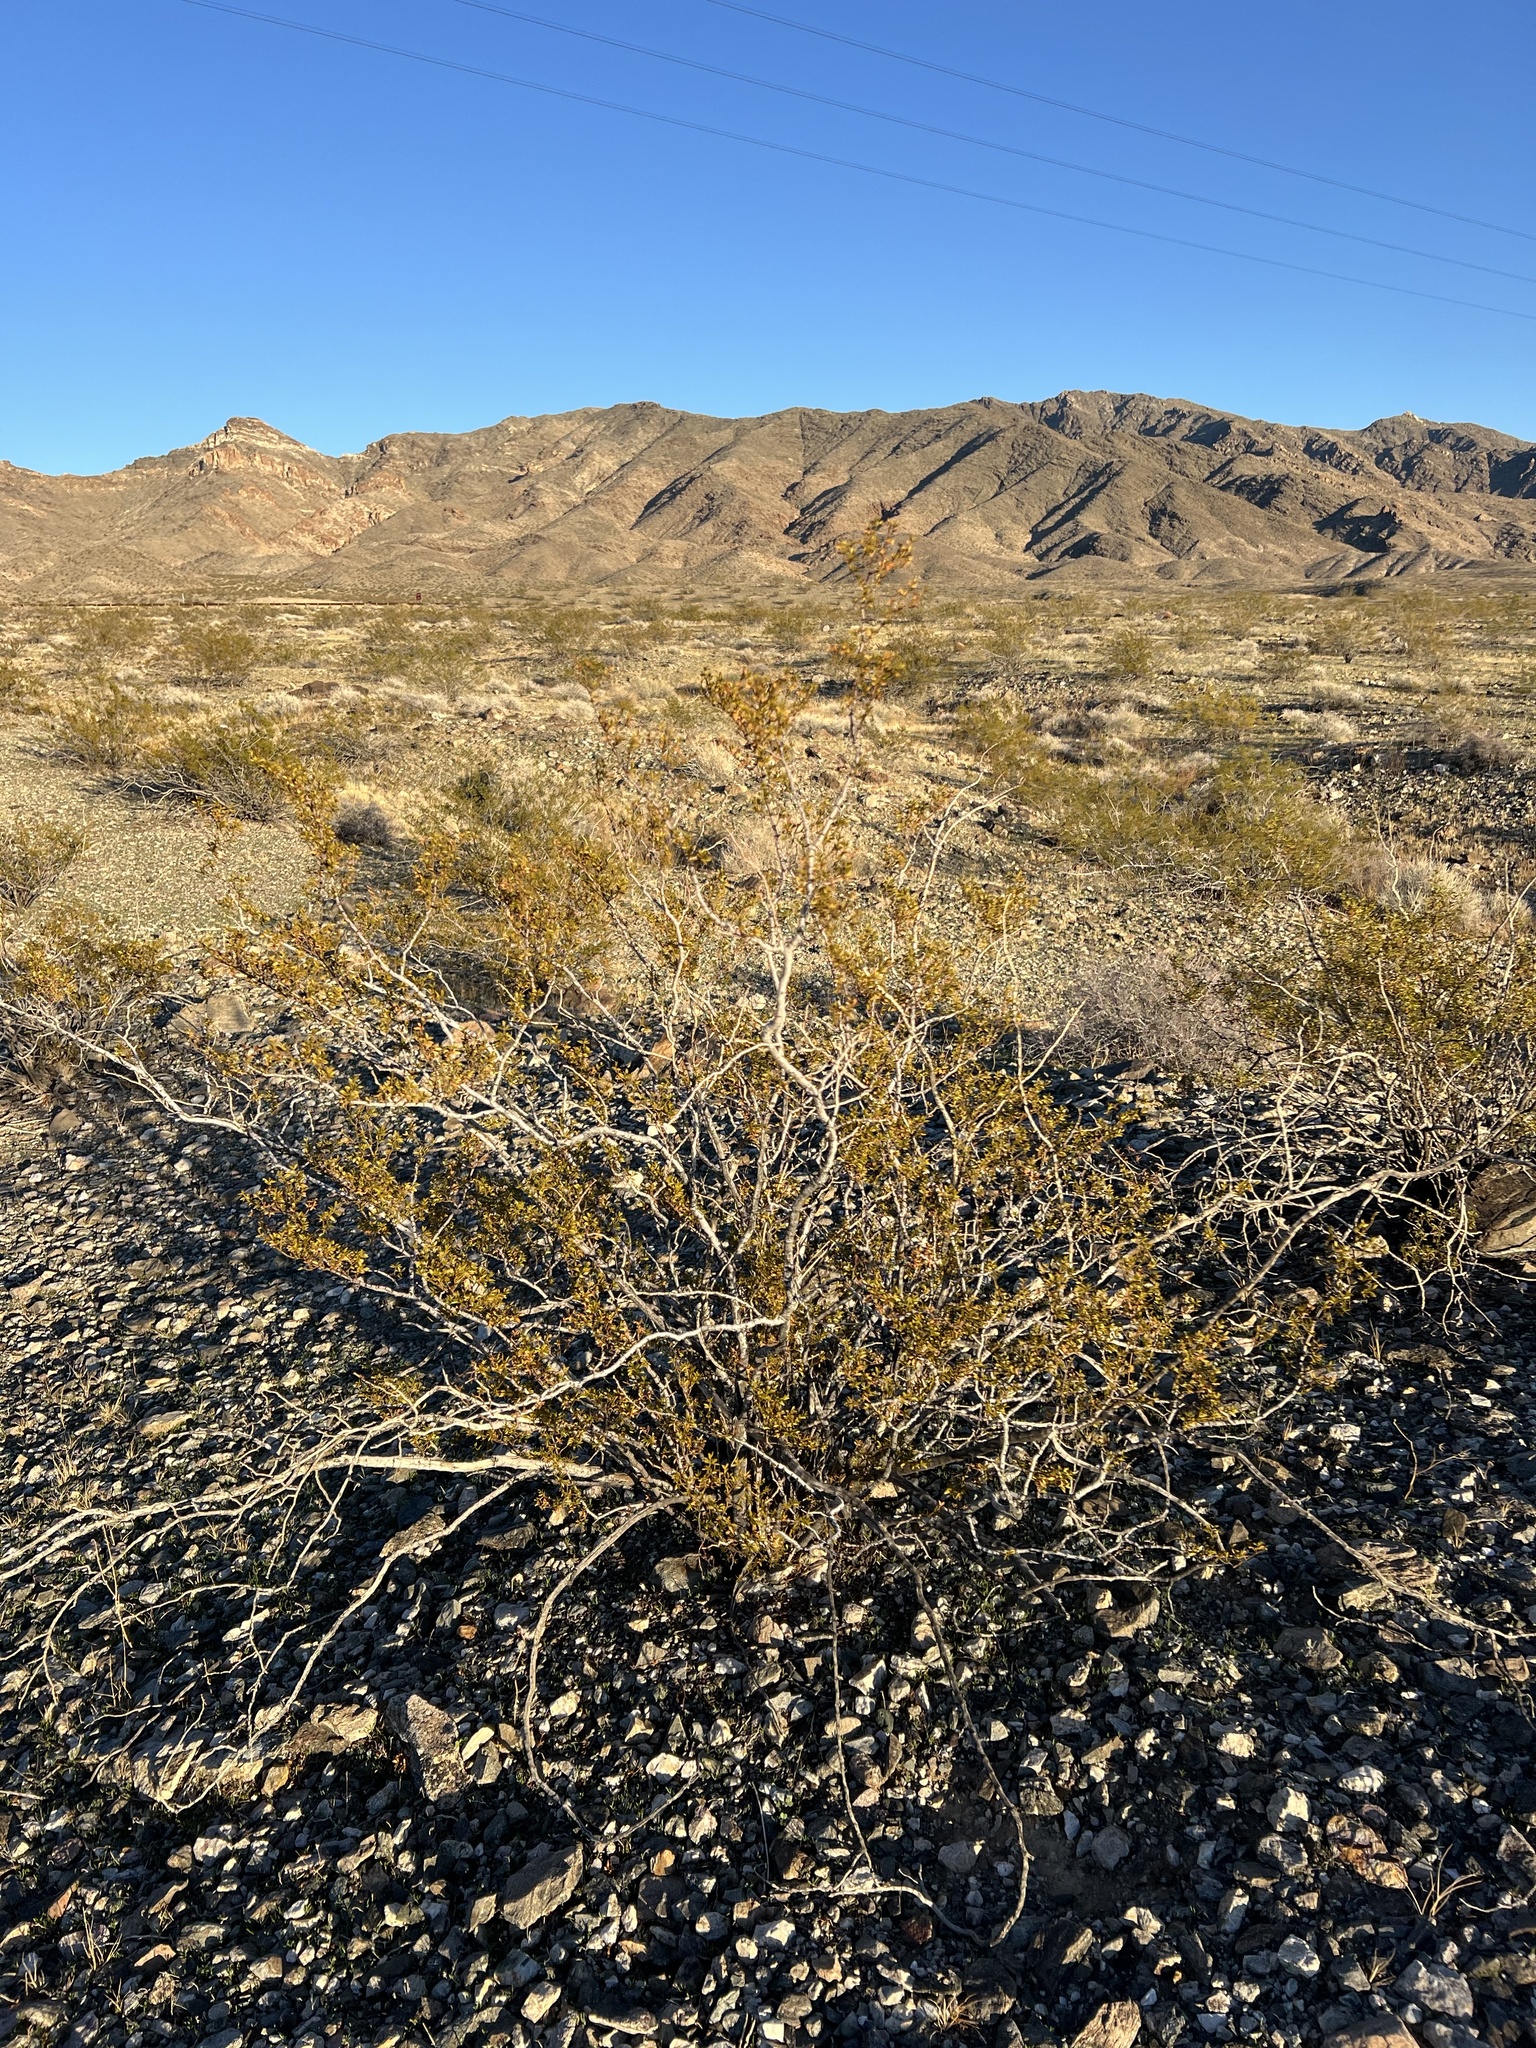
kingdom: Plantae
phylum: Tracheophyta
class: Magnoliopsida
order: Zygophyllales
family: Zygophyllaceae
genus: Larrea
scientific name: Larrea tridentata
